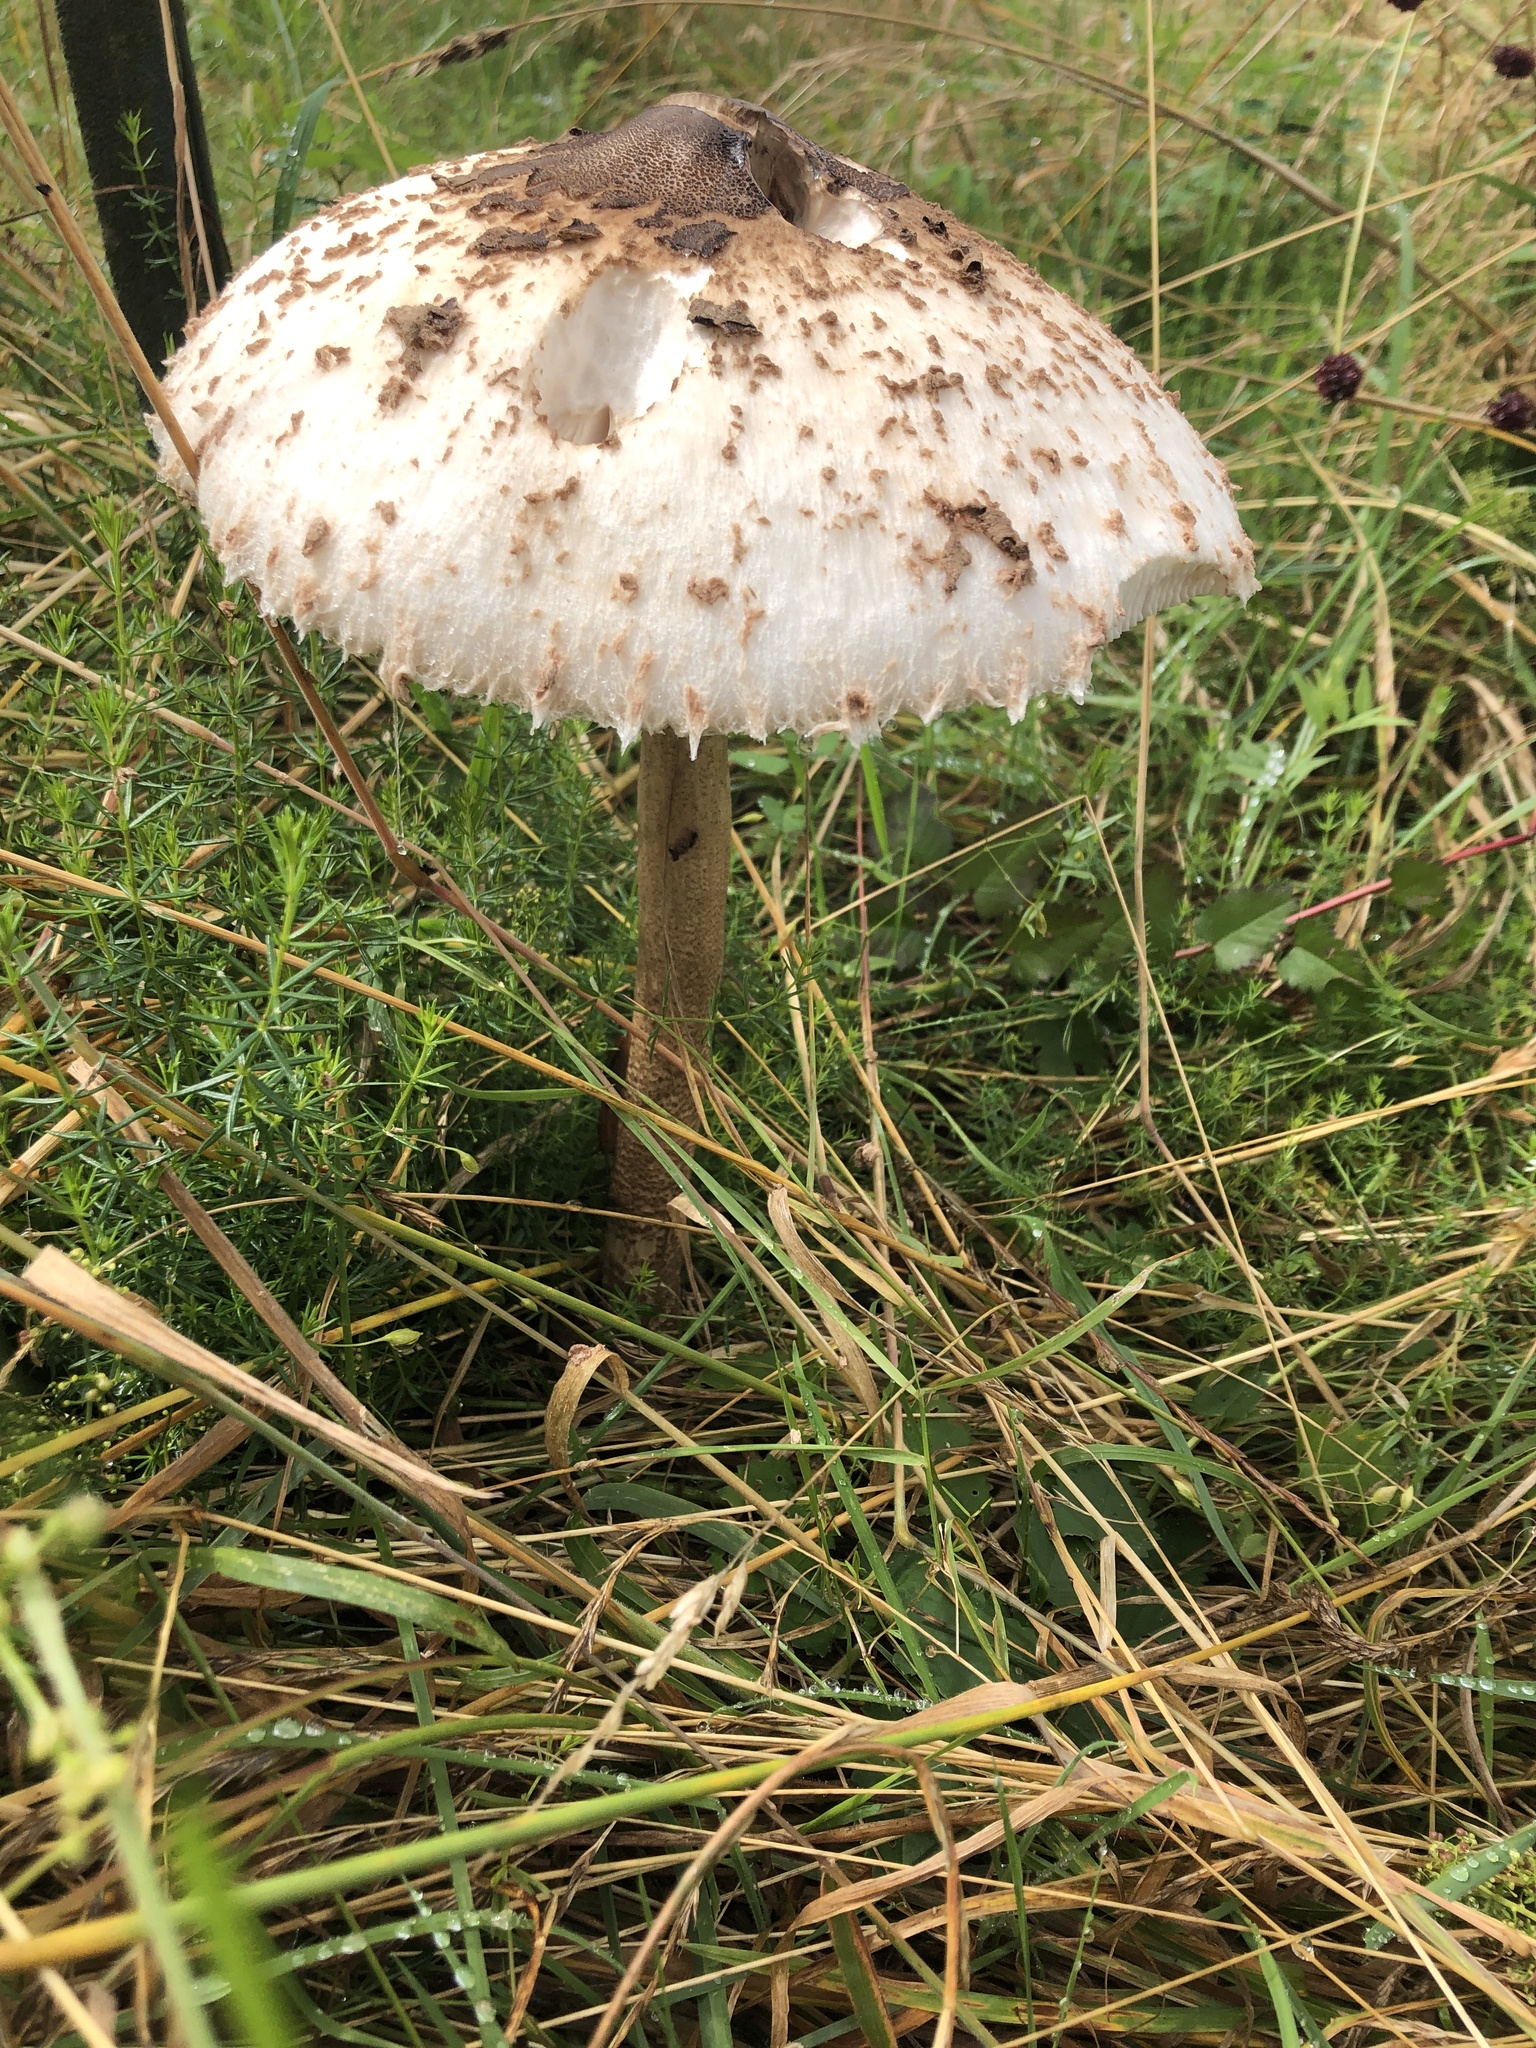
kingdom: Fungi
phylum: Basidiomycota
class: Agaricomycetes
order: Agaricales
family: Agaricaceae
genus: Macrolepiota
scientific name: Macrolepiota procera
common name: Parasol
